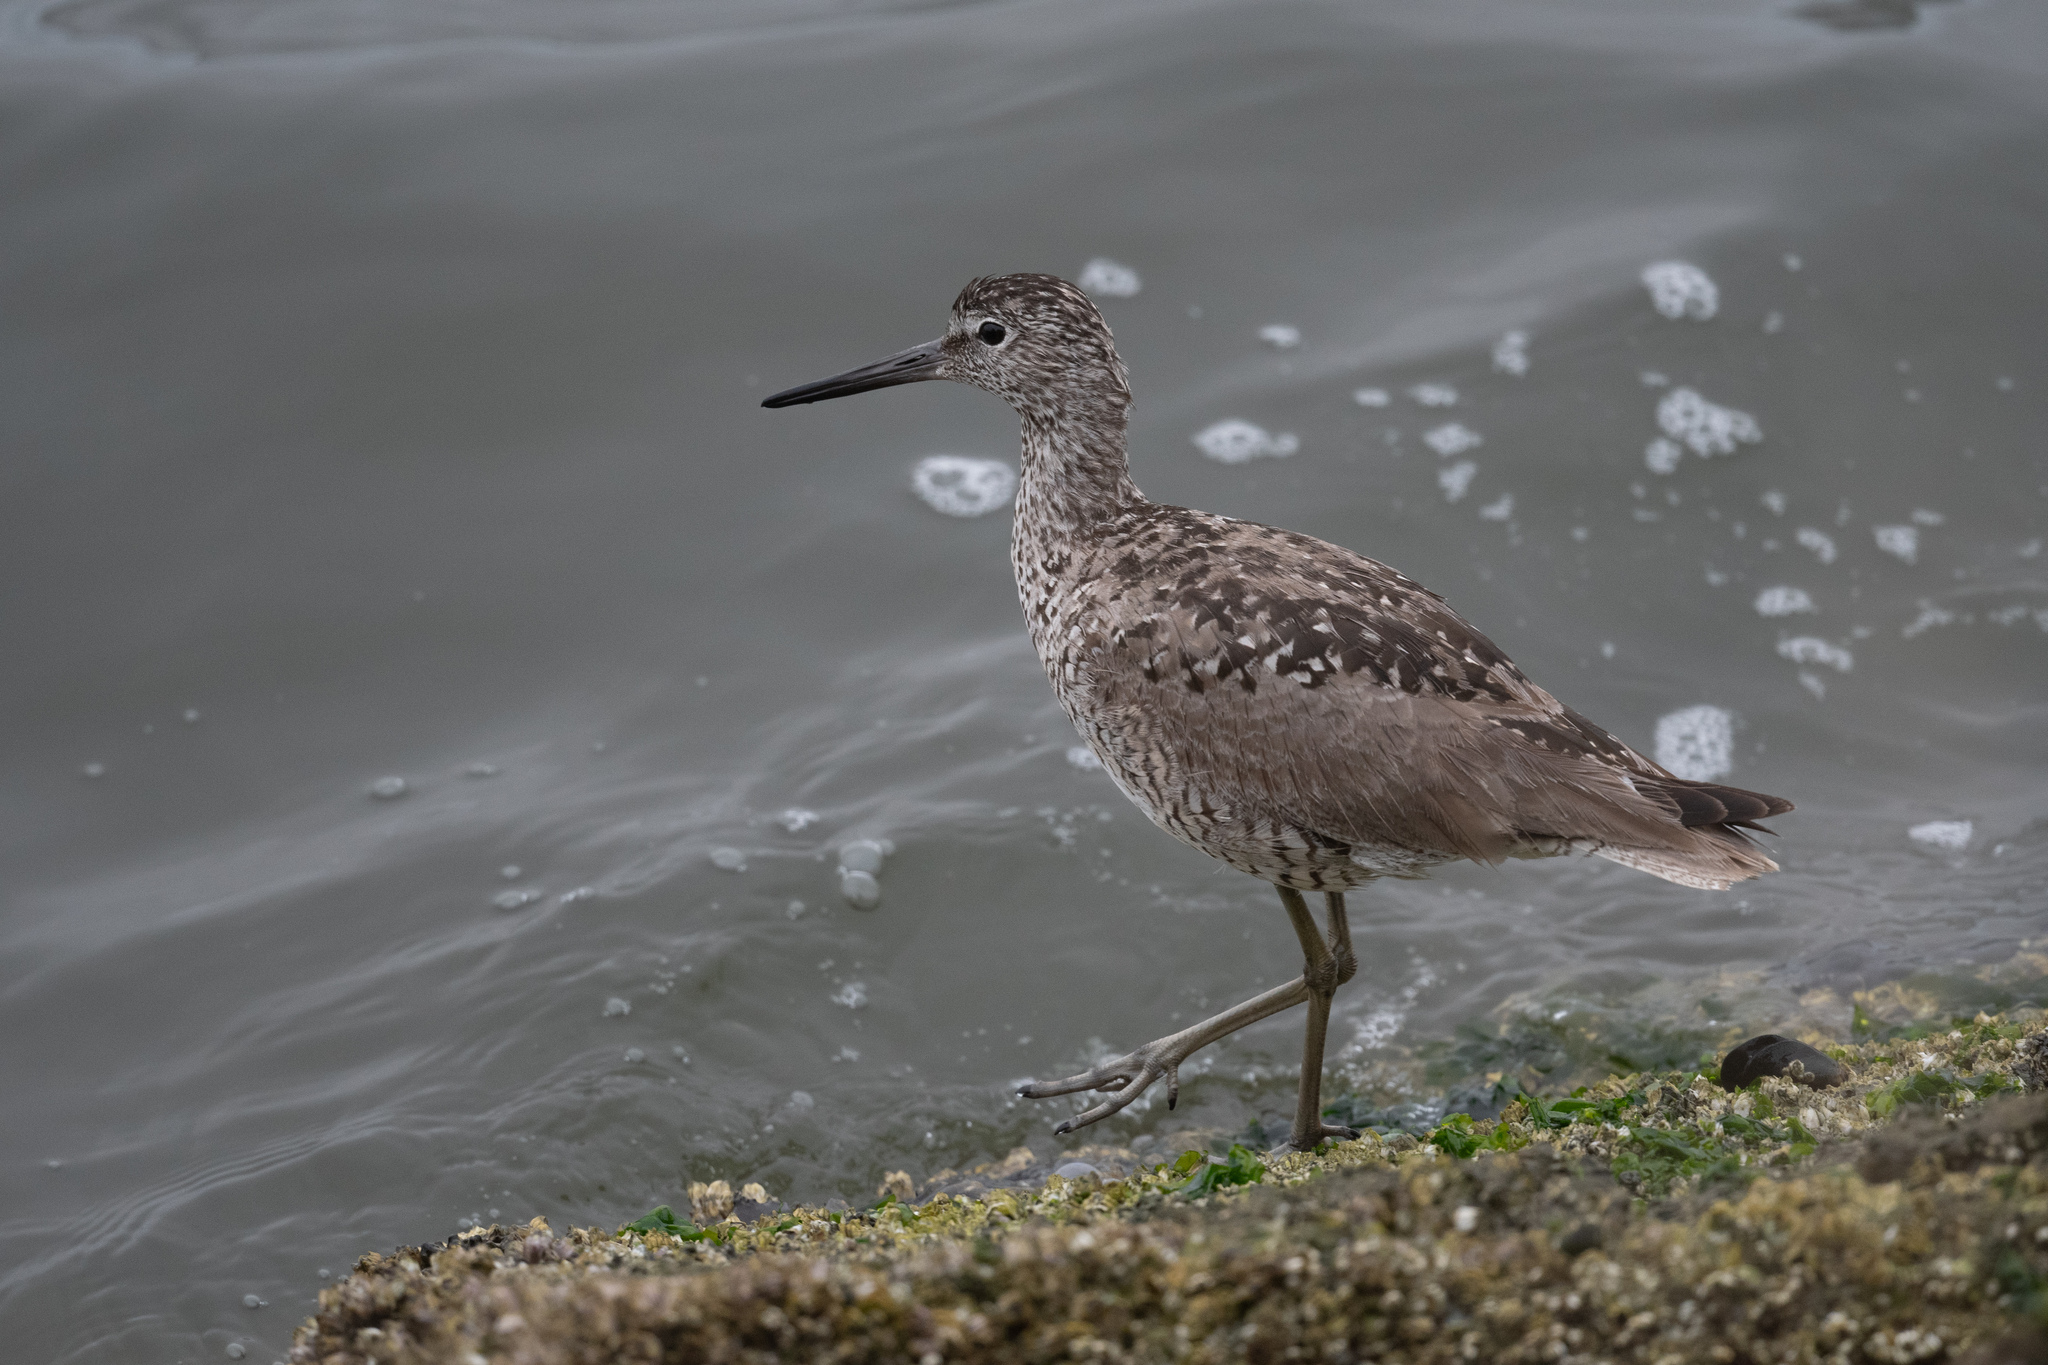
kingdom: Animalia
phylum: Chordata
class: Aves
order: Charadriiformes
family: Scolopacidae
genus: Tringa
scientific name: Tringa semipalmata
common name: Willet
